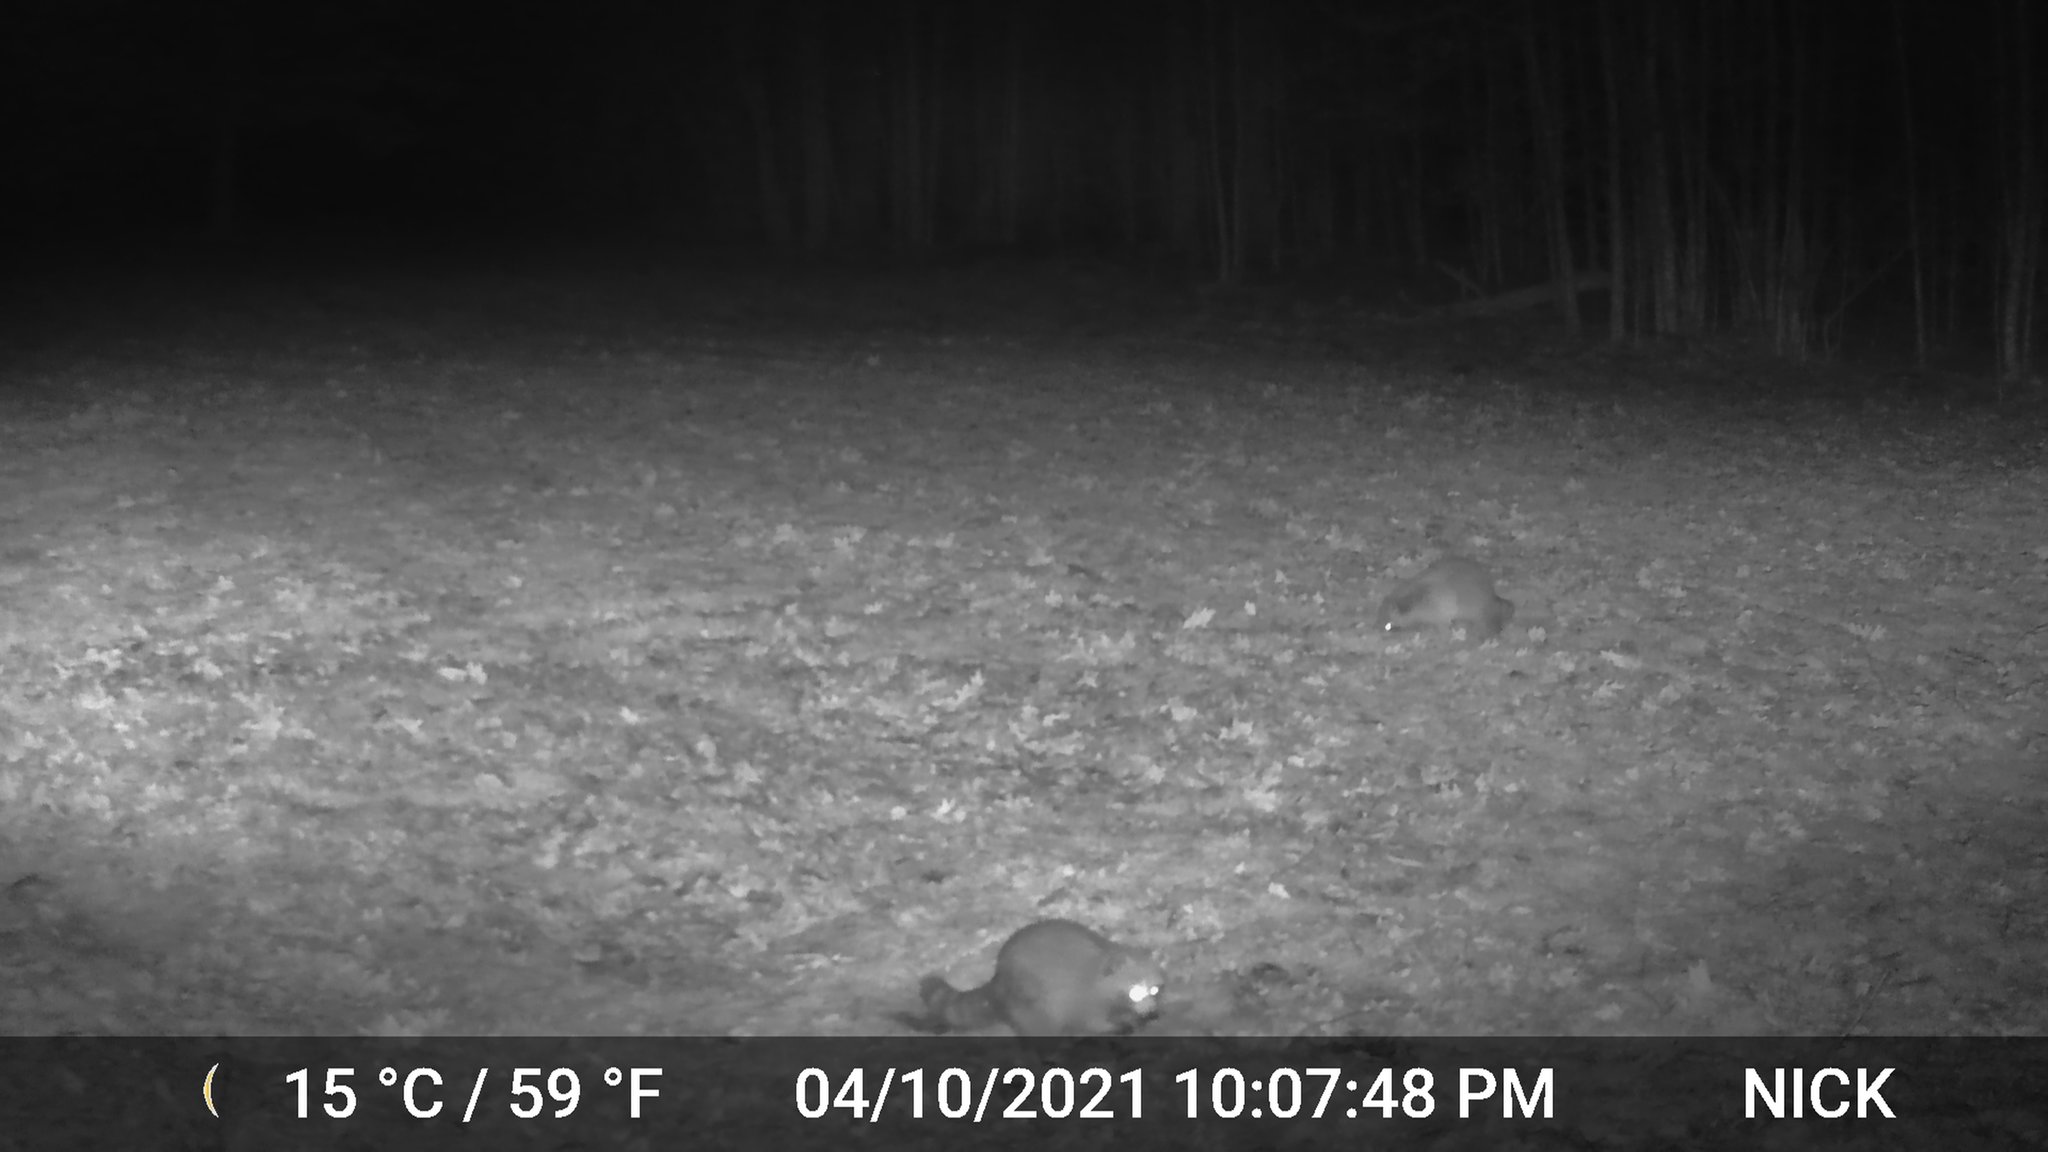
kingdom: Animalia
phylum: Chordata
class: Mammalia
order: Carnivora
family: Procyonidae
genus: Procyon
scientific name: Procyon lotor
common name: Raccoon
